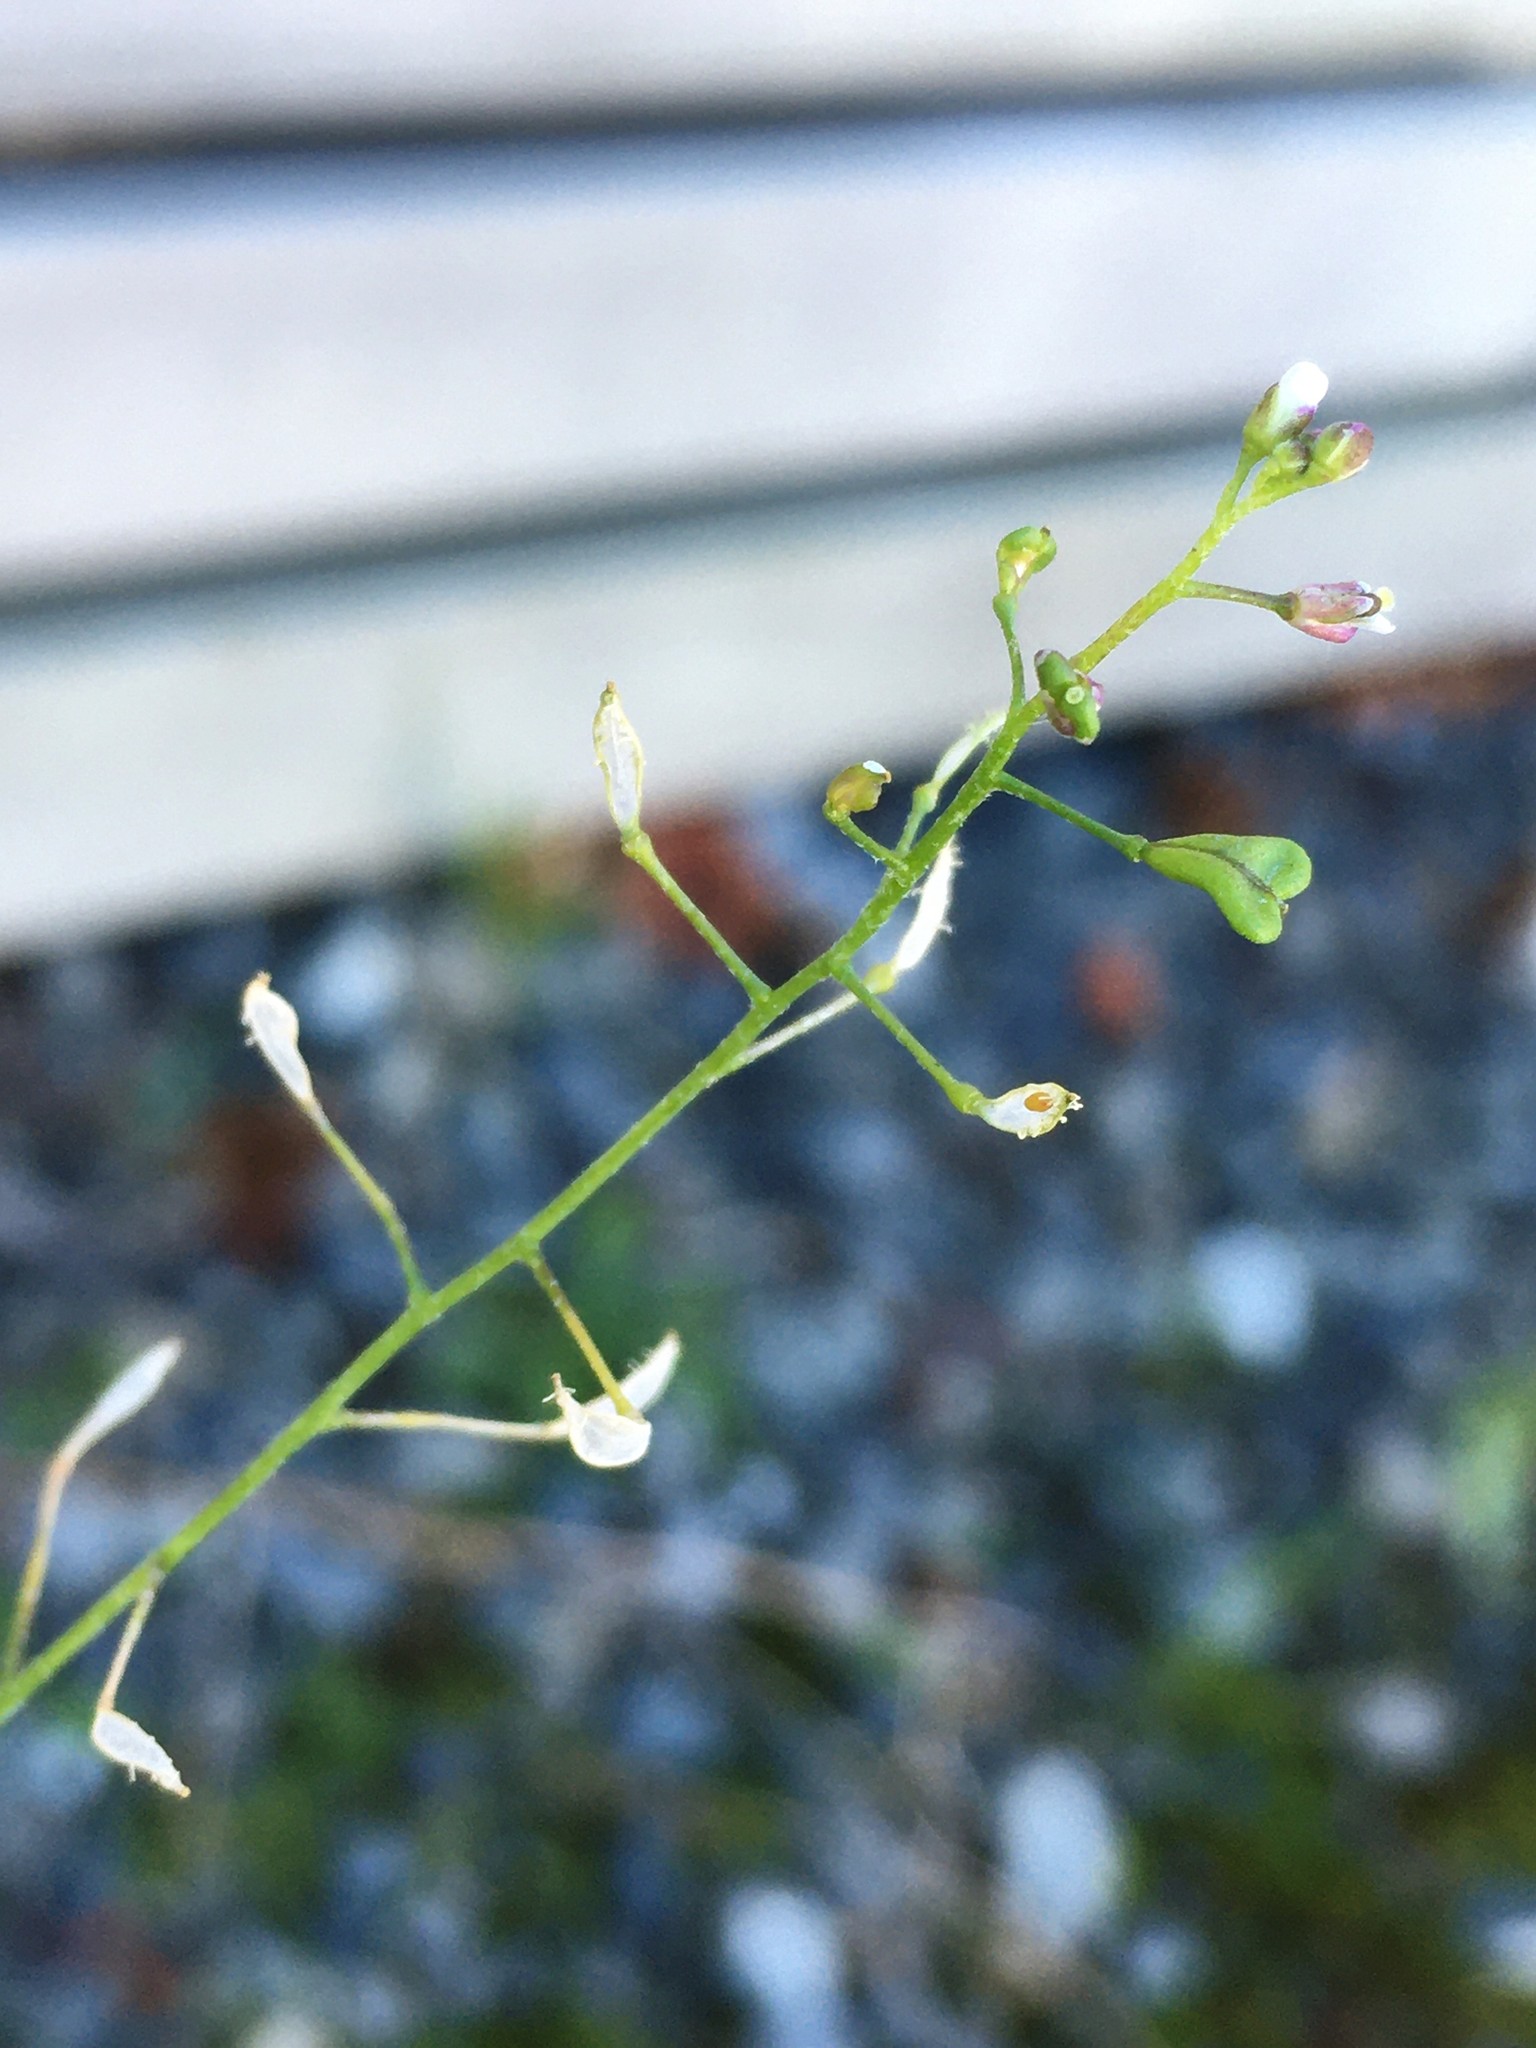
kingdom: Plantae
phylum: Tracheophyta
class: Magnoliopsida
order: Brassicales
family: Brassicaceae
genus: Capsella
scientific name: Capsella bursa-pastoris
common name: Shepherd's purse
